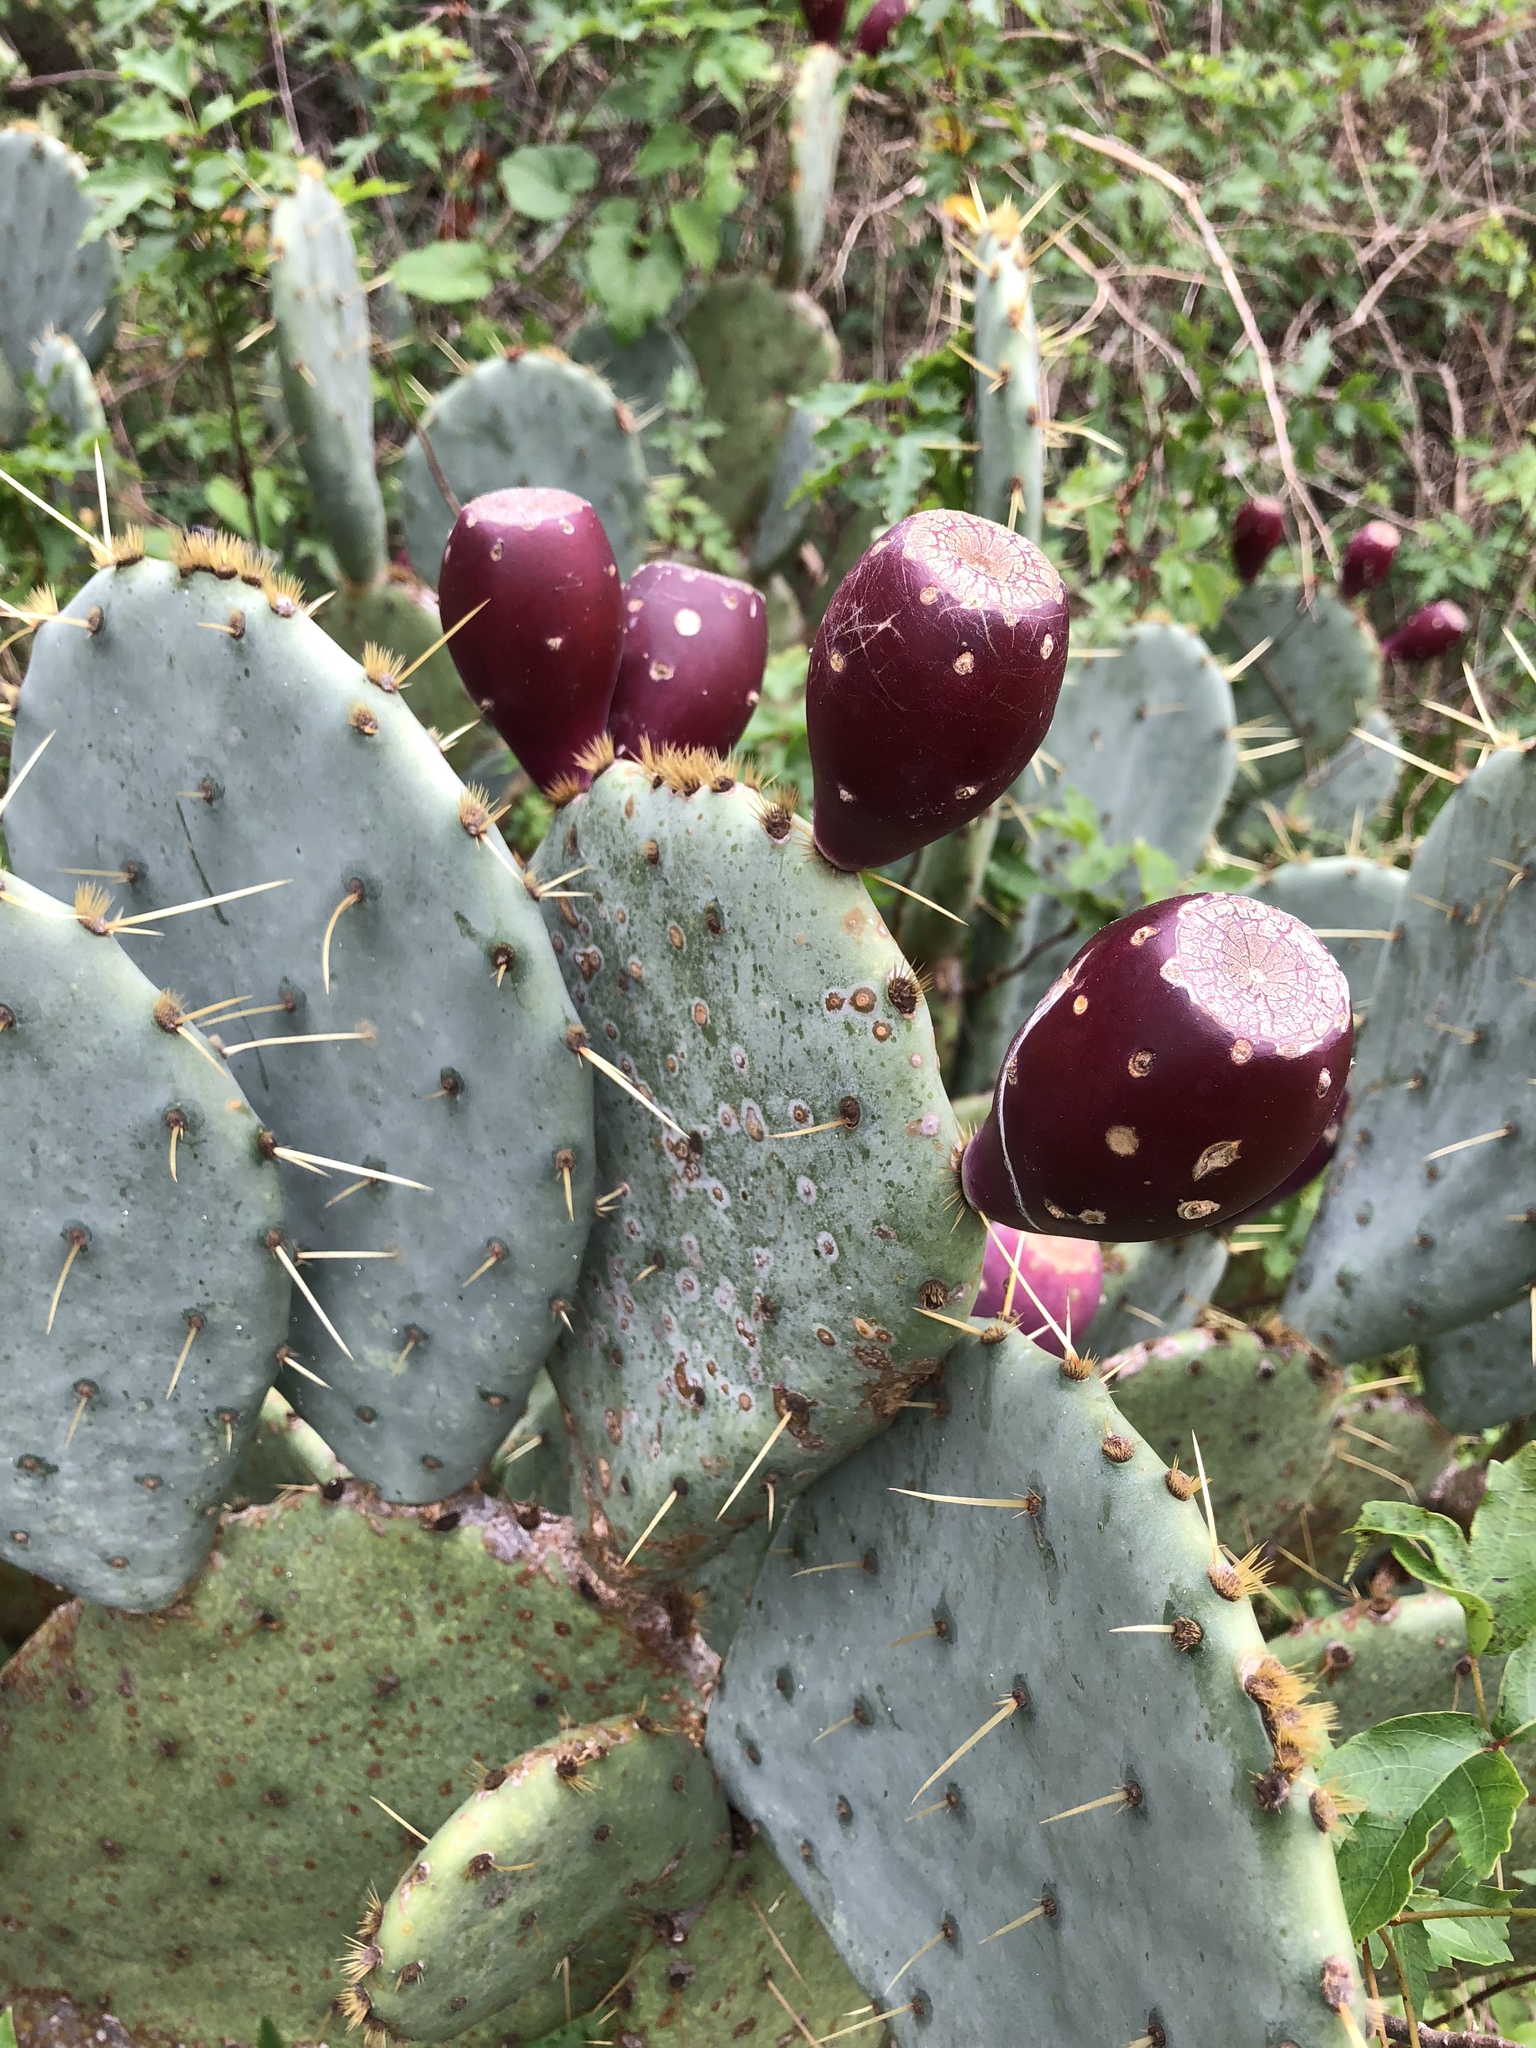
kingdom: Plantae
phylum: Tracheophyta
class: Magnoliopsida
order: Caryophyllales
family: Cactaceae
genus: Opuntia
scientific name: Opuntia engelmannii
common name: Cactus-apple
